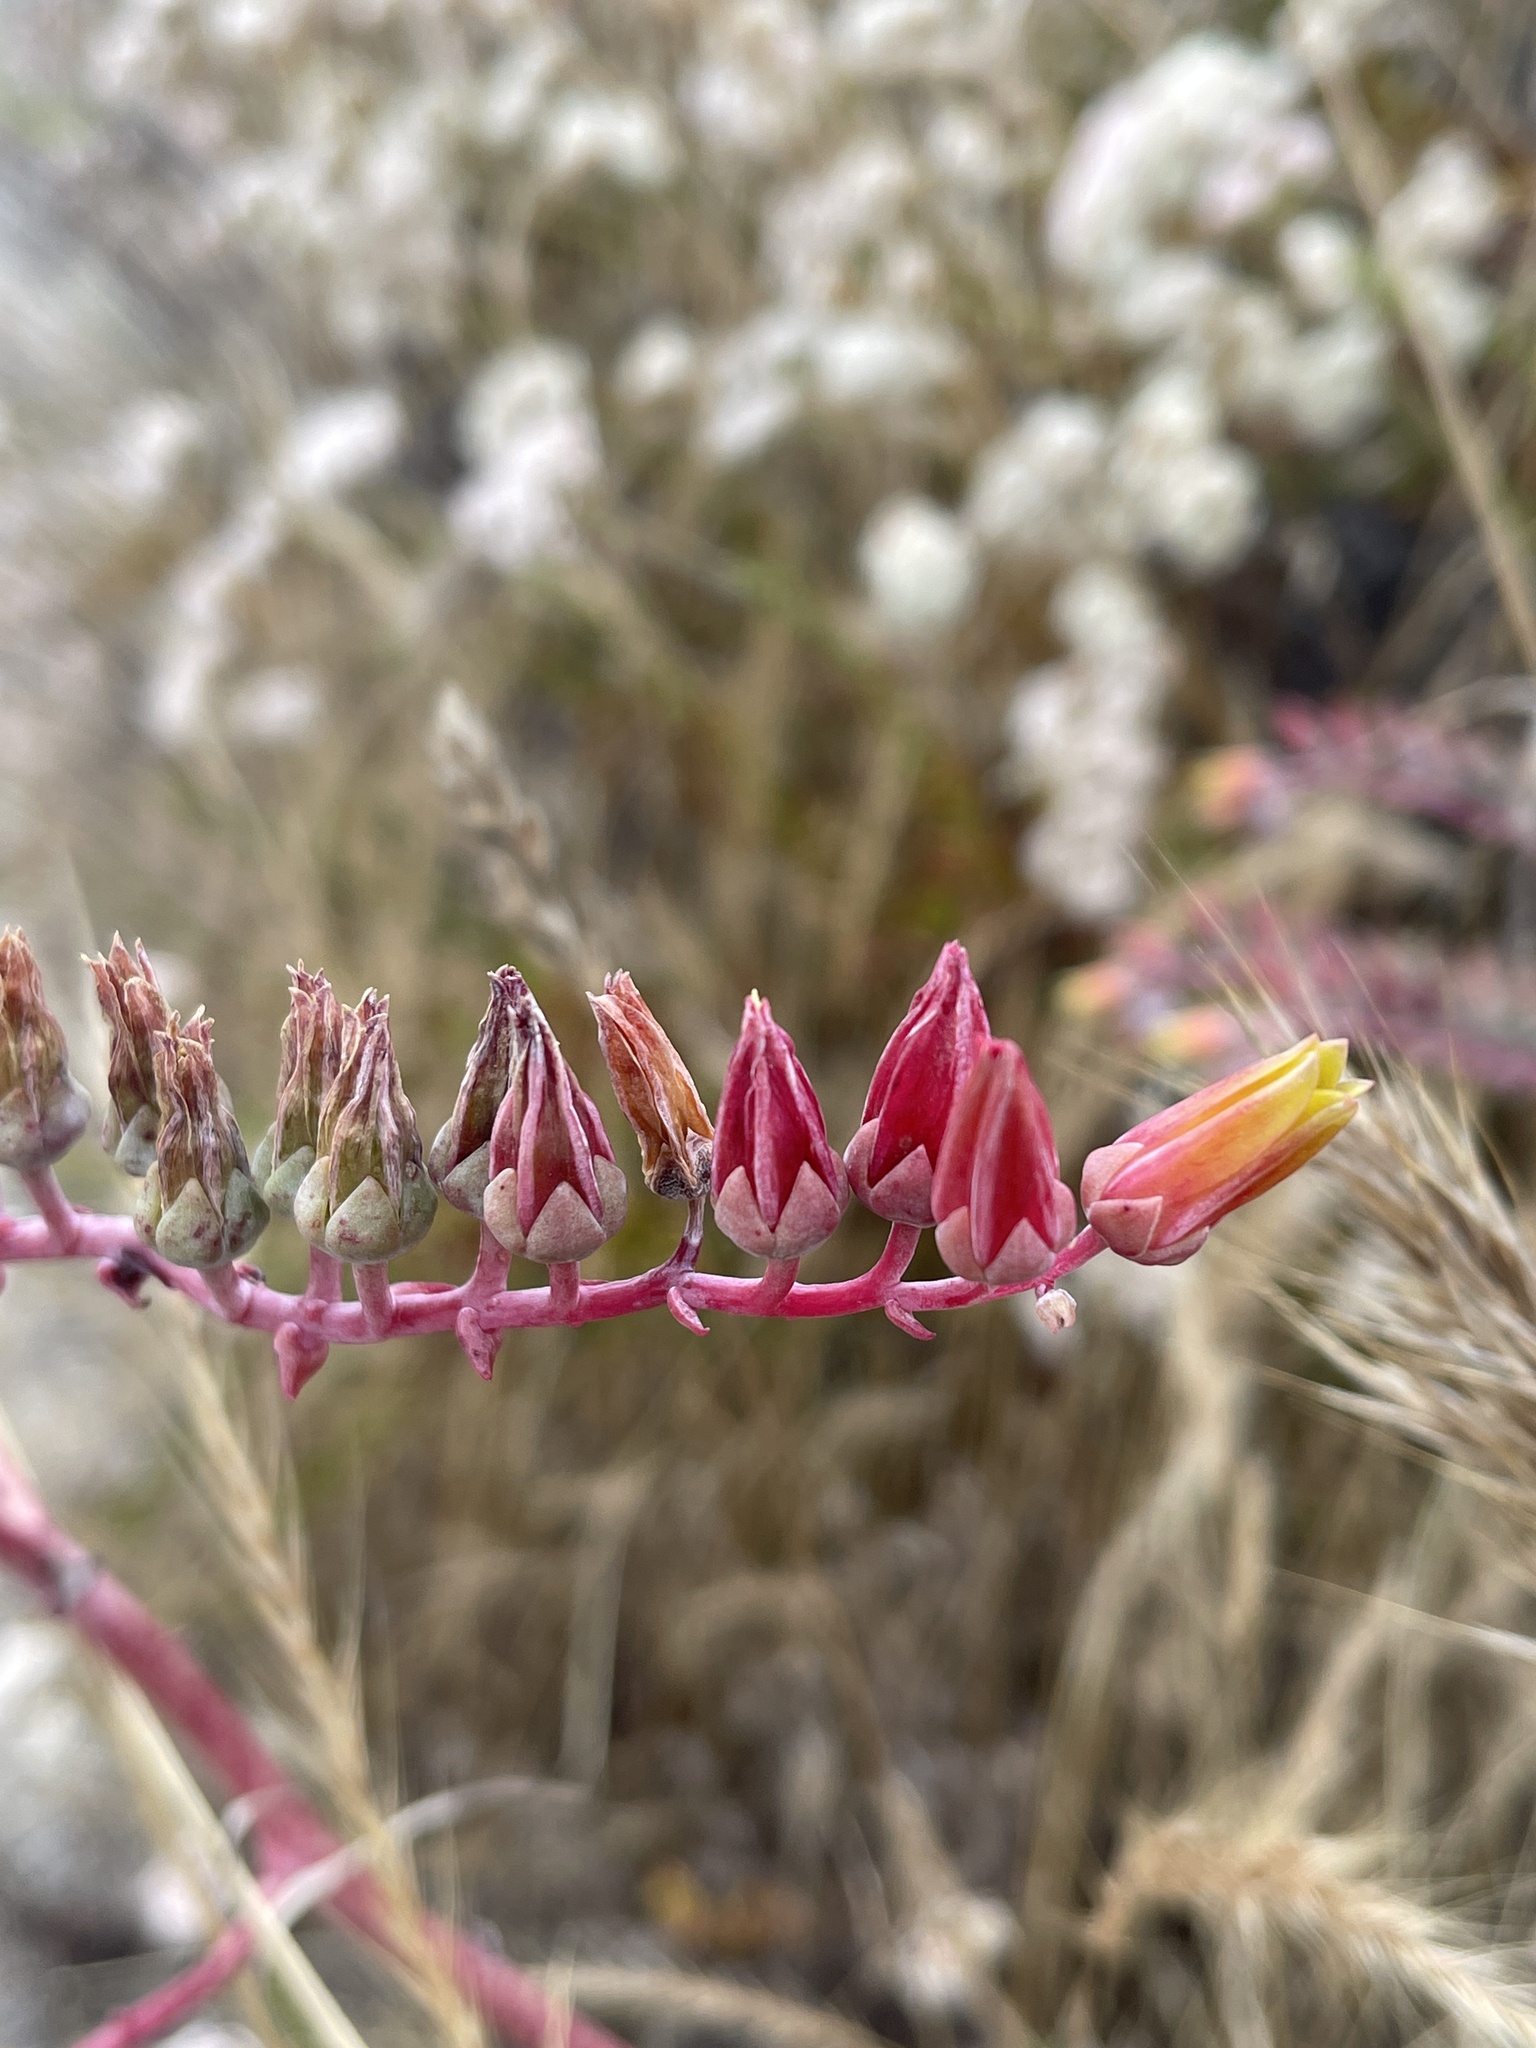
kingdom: Plantae
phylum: Tracheophyta
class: Magnoliopsida
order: Saxifragales
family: Crassulaceae
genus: Dudleya
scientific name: Dudleya lanceolata
